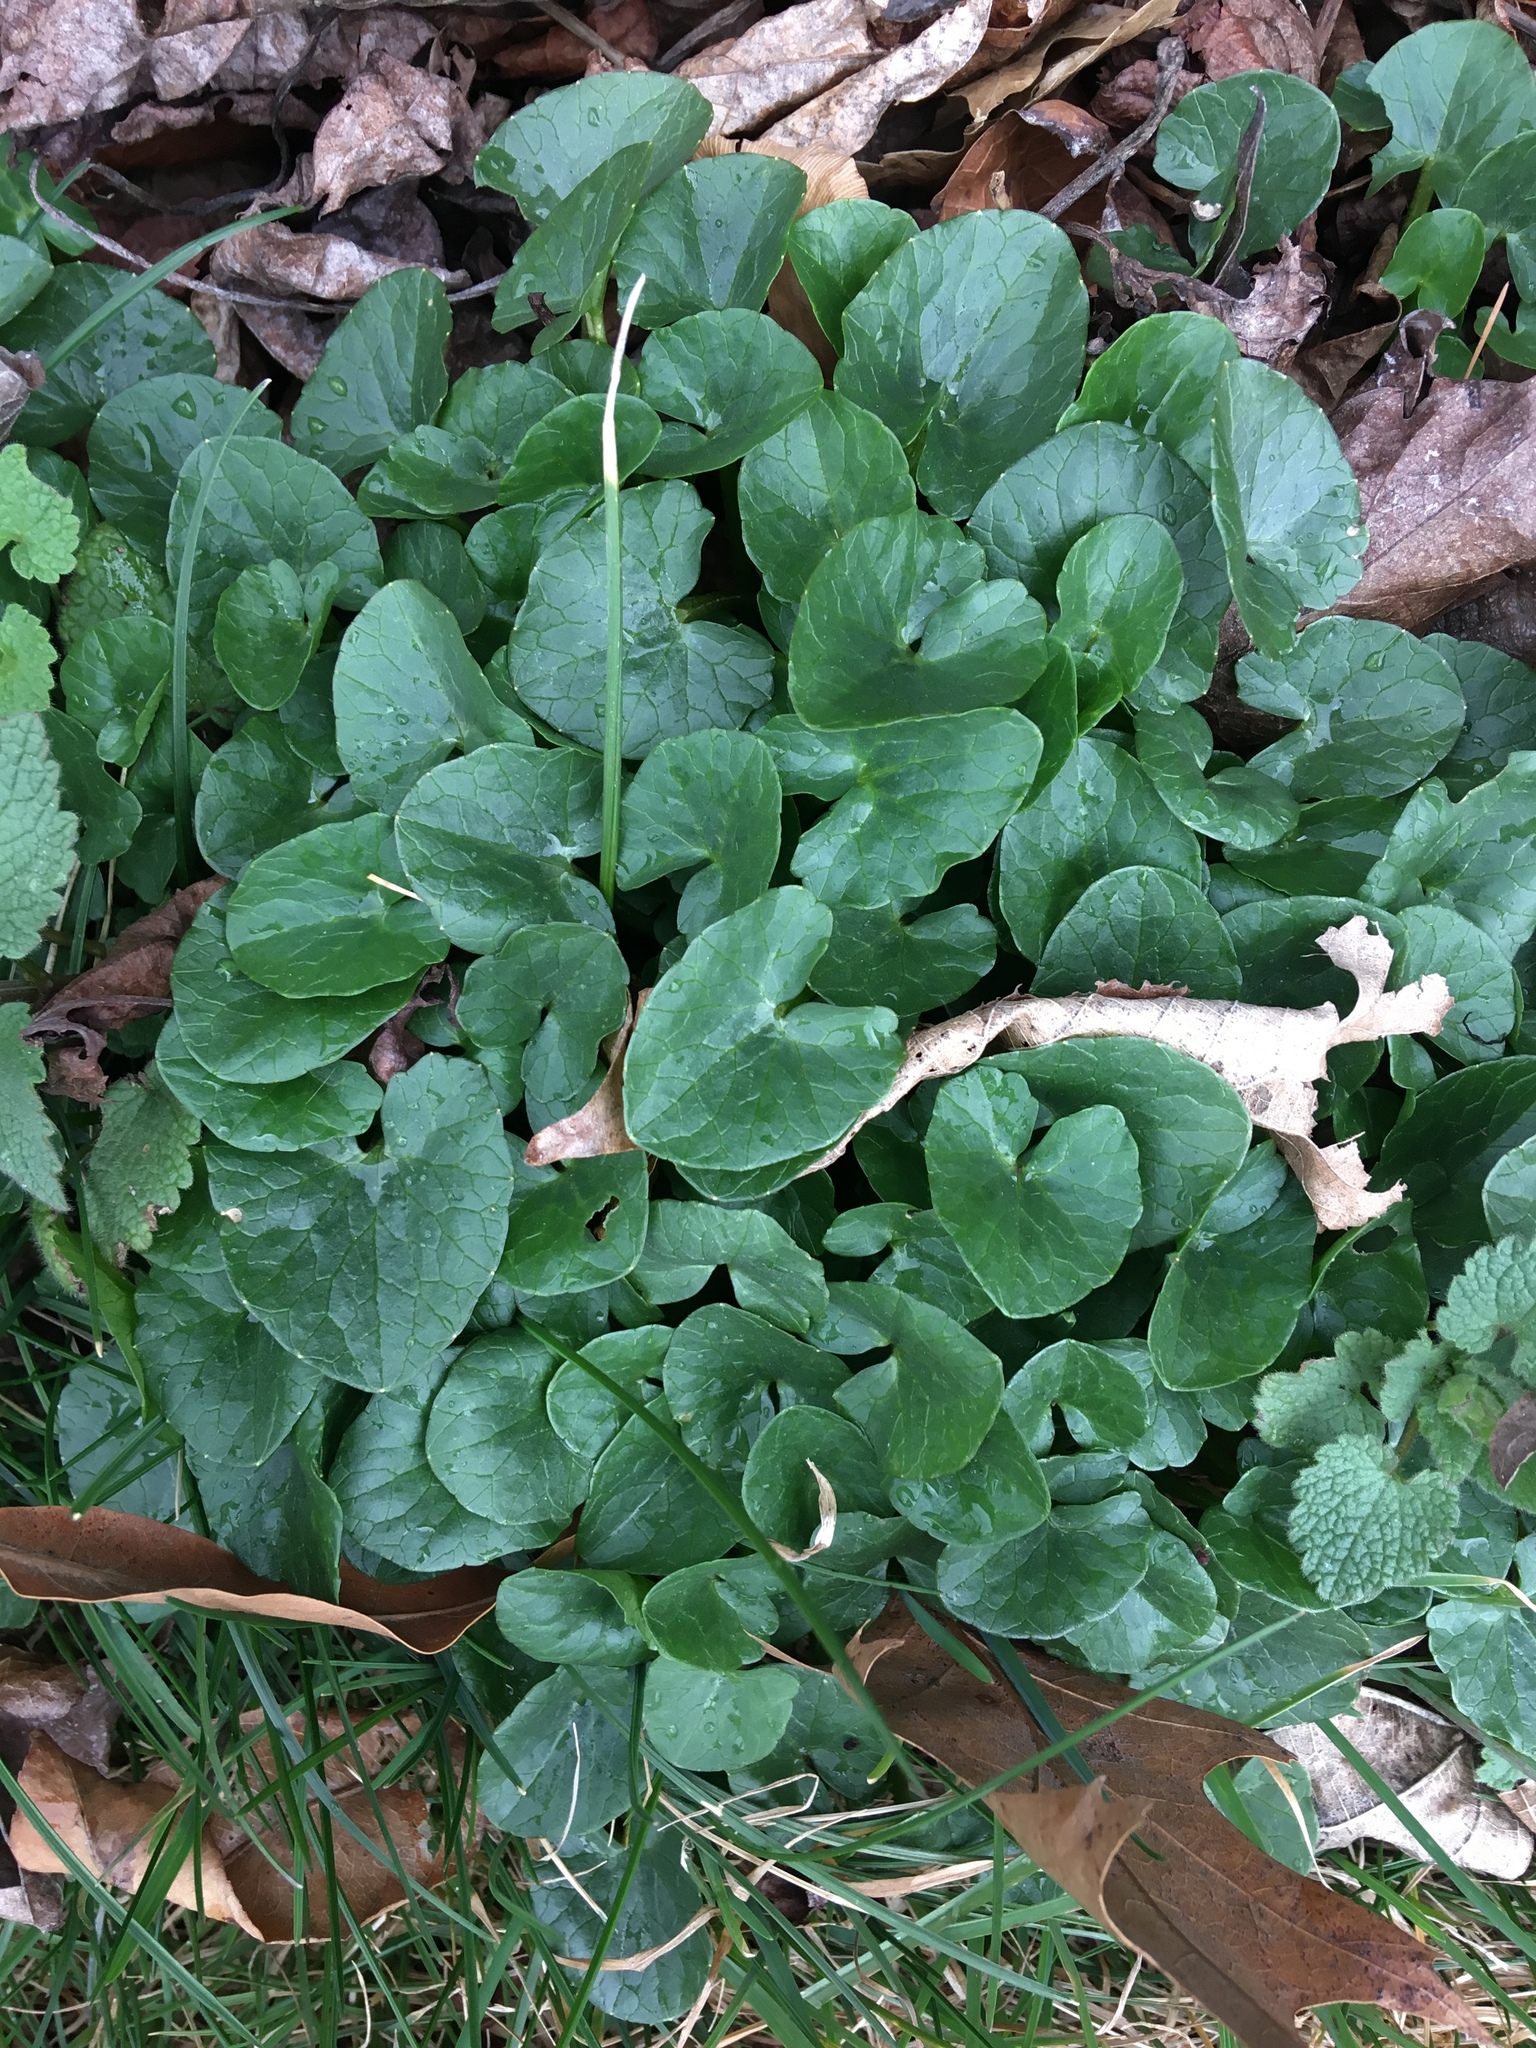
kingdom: Plantae
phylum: Tracheophyta
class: Magnoliopsida
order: Ranunculales
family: Ranunculaceae
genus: Ficaria
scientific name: Ficaria verna
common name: Lesser celandine
